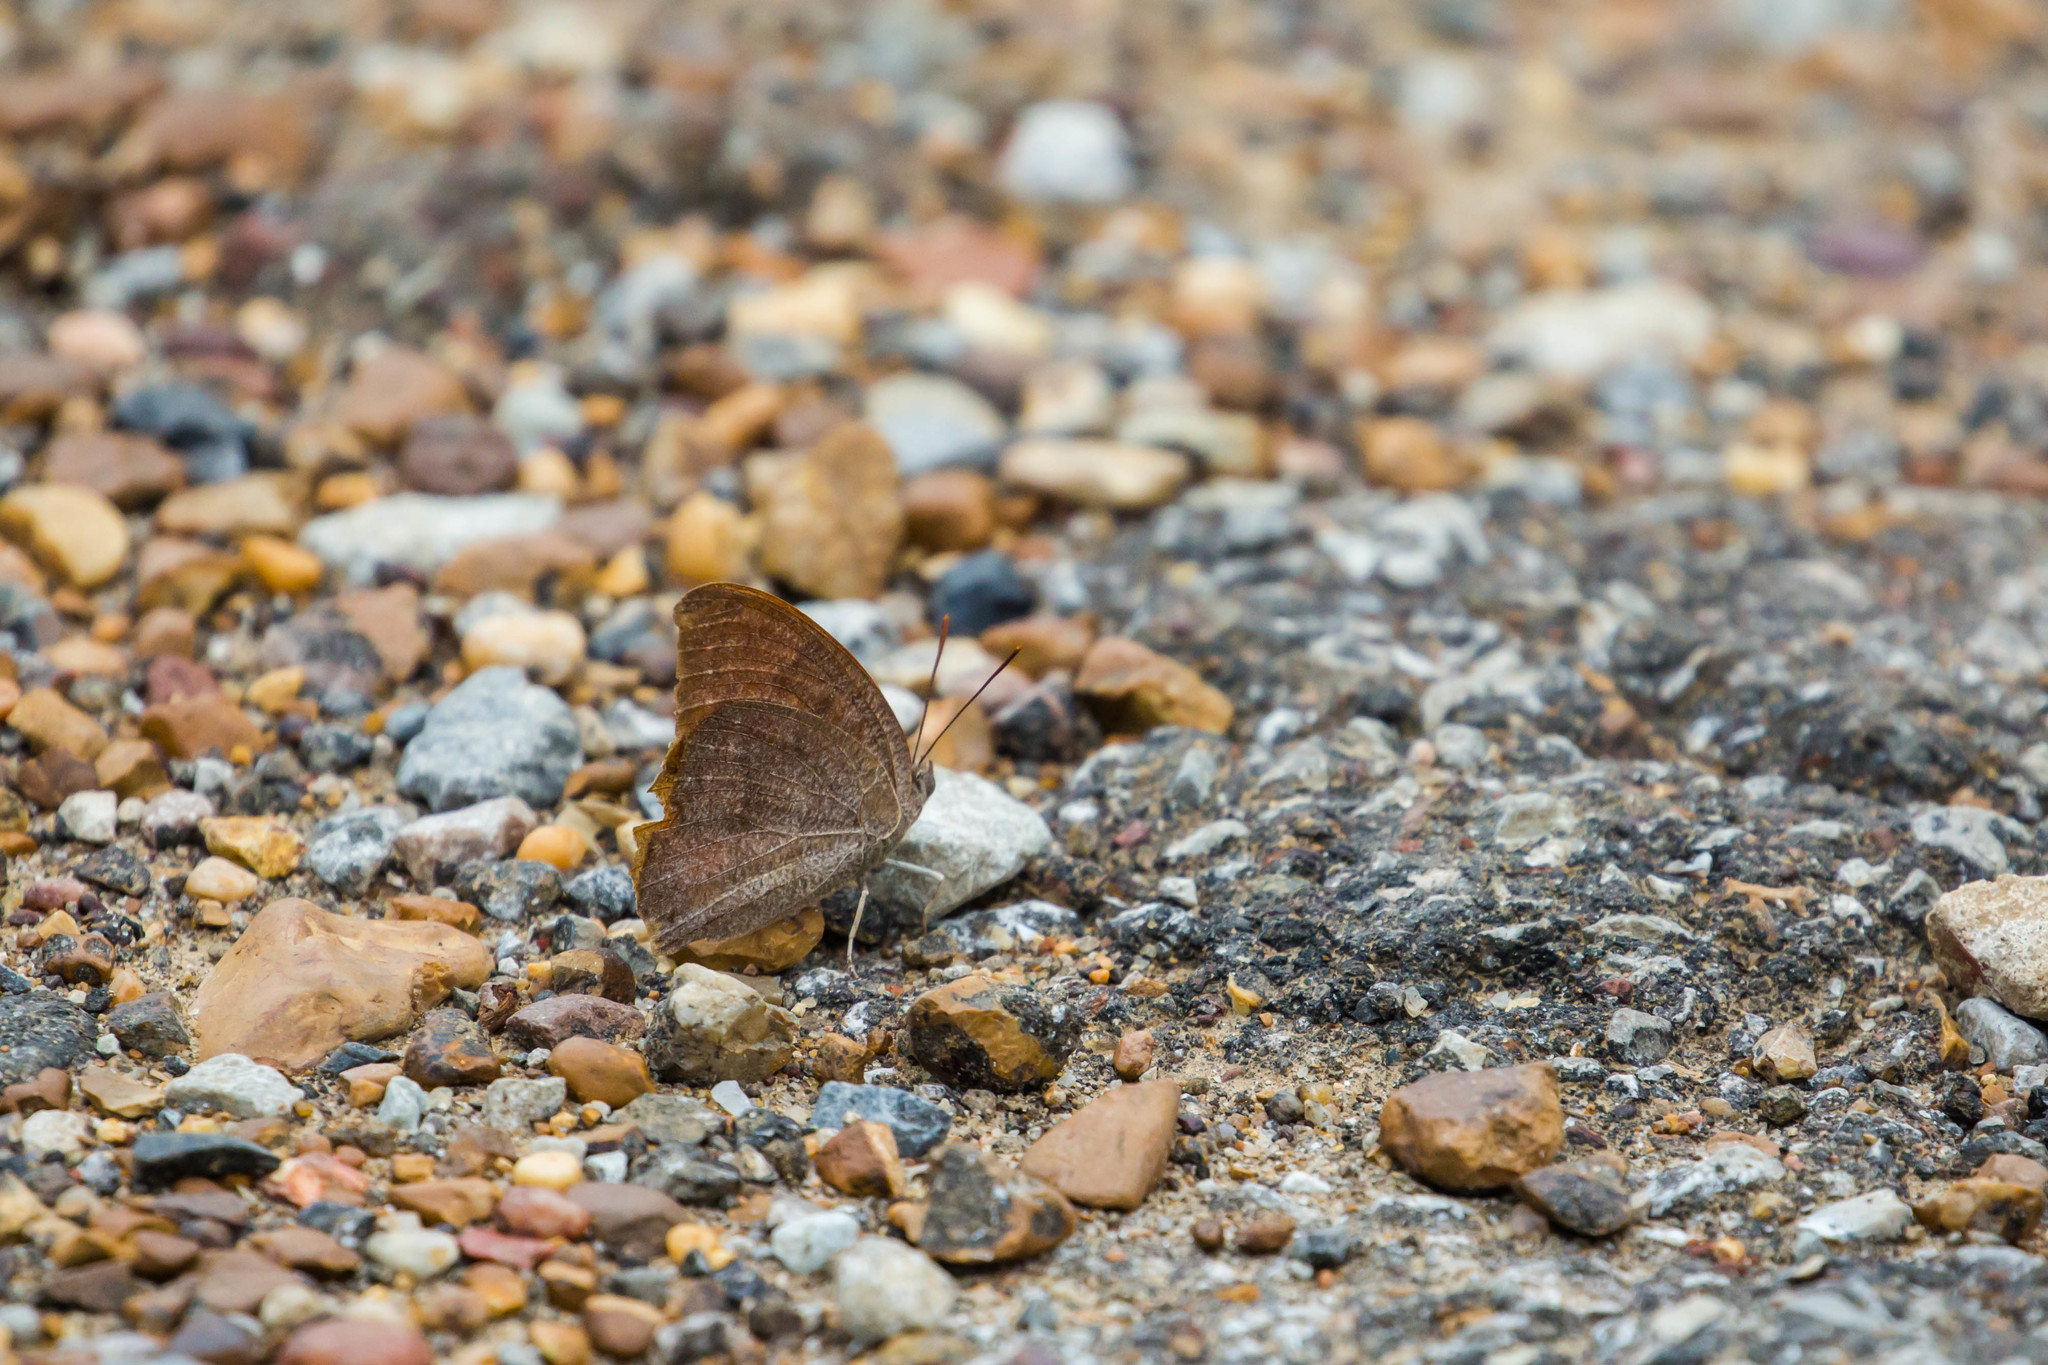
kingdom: Animalia
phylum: Arthropoda
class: Insecta
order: Lepidoptera
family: Nymphalidae
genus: Anaea
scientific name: Anaea andria
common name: Goatweed leafwing
